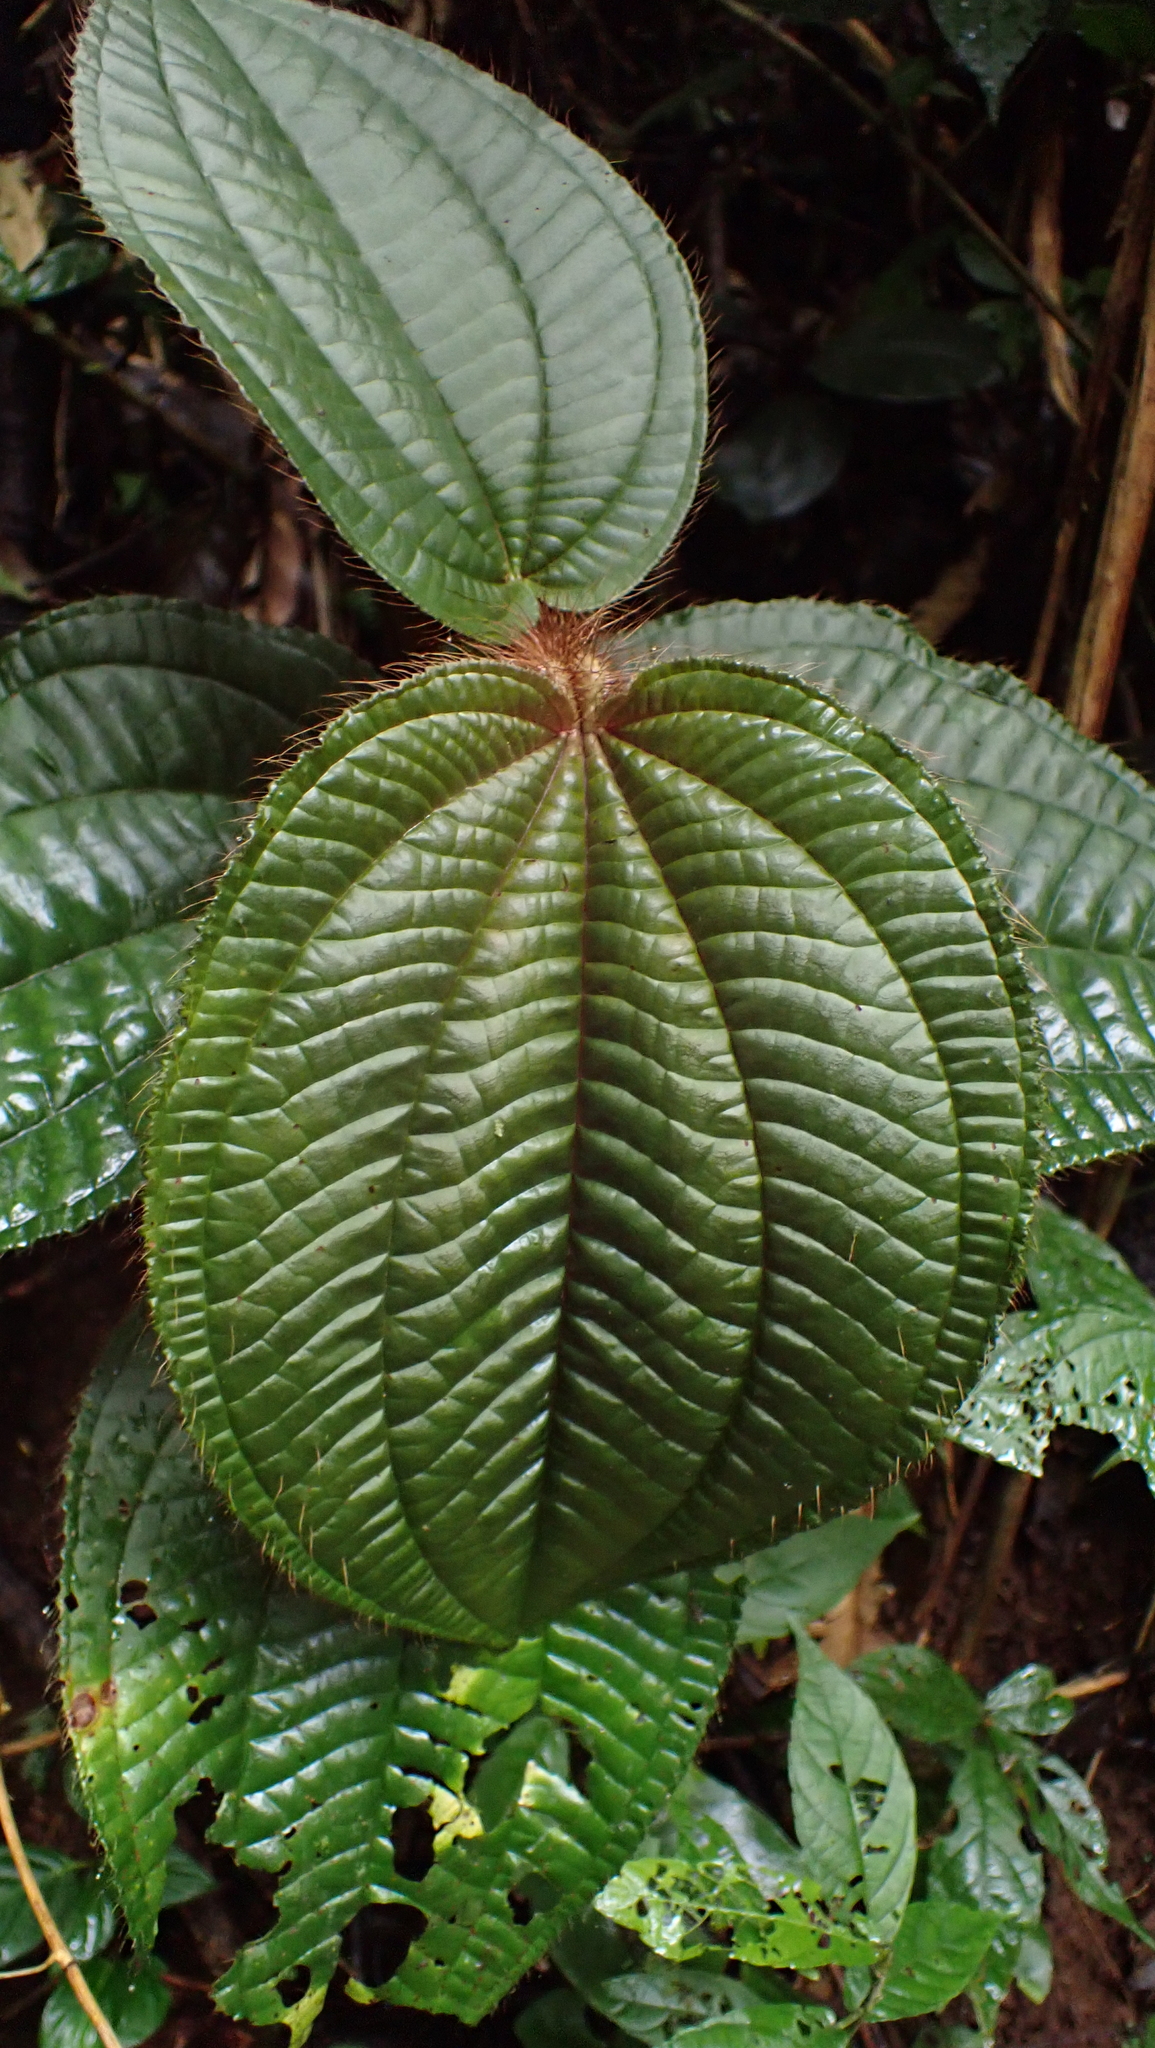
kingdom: Plantae
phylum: Tracheophyta
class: Magnoliopsida
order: Myrtales
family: Melastomataceae
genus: Miconia
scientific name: Miconia formicosetosa
